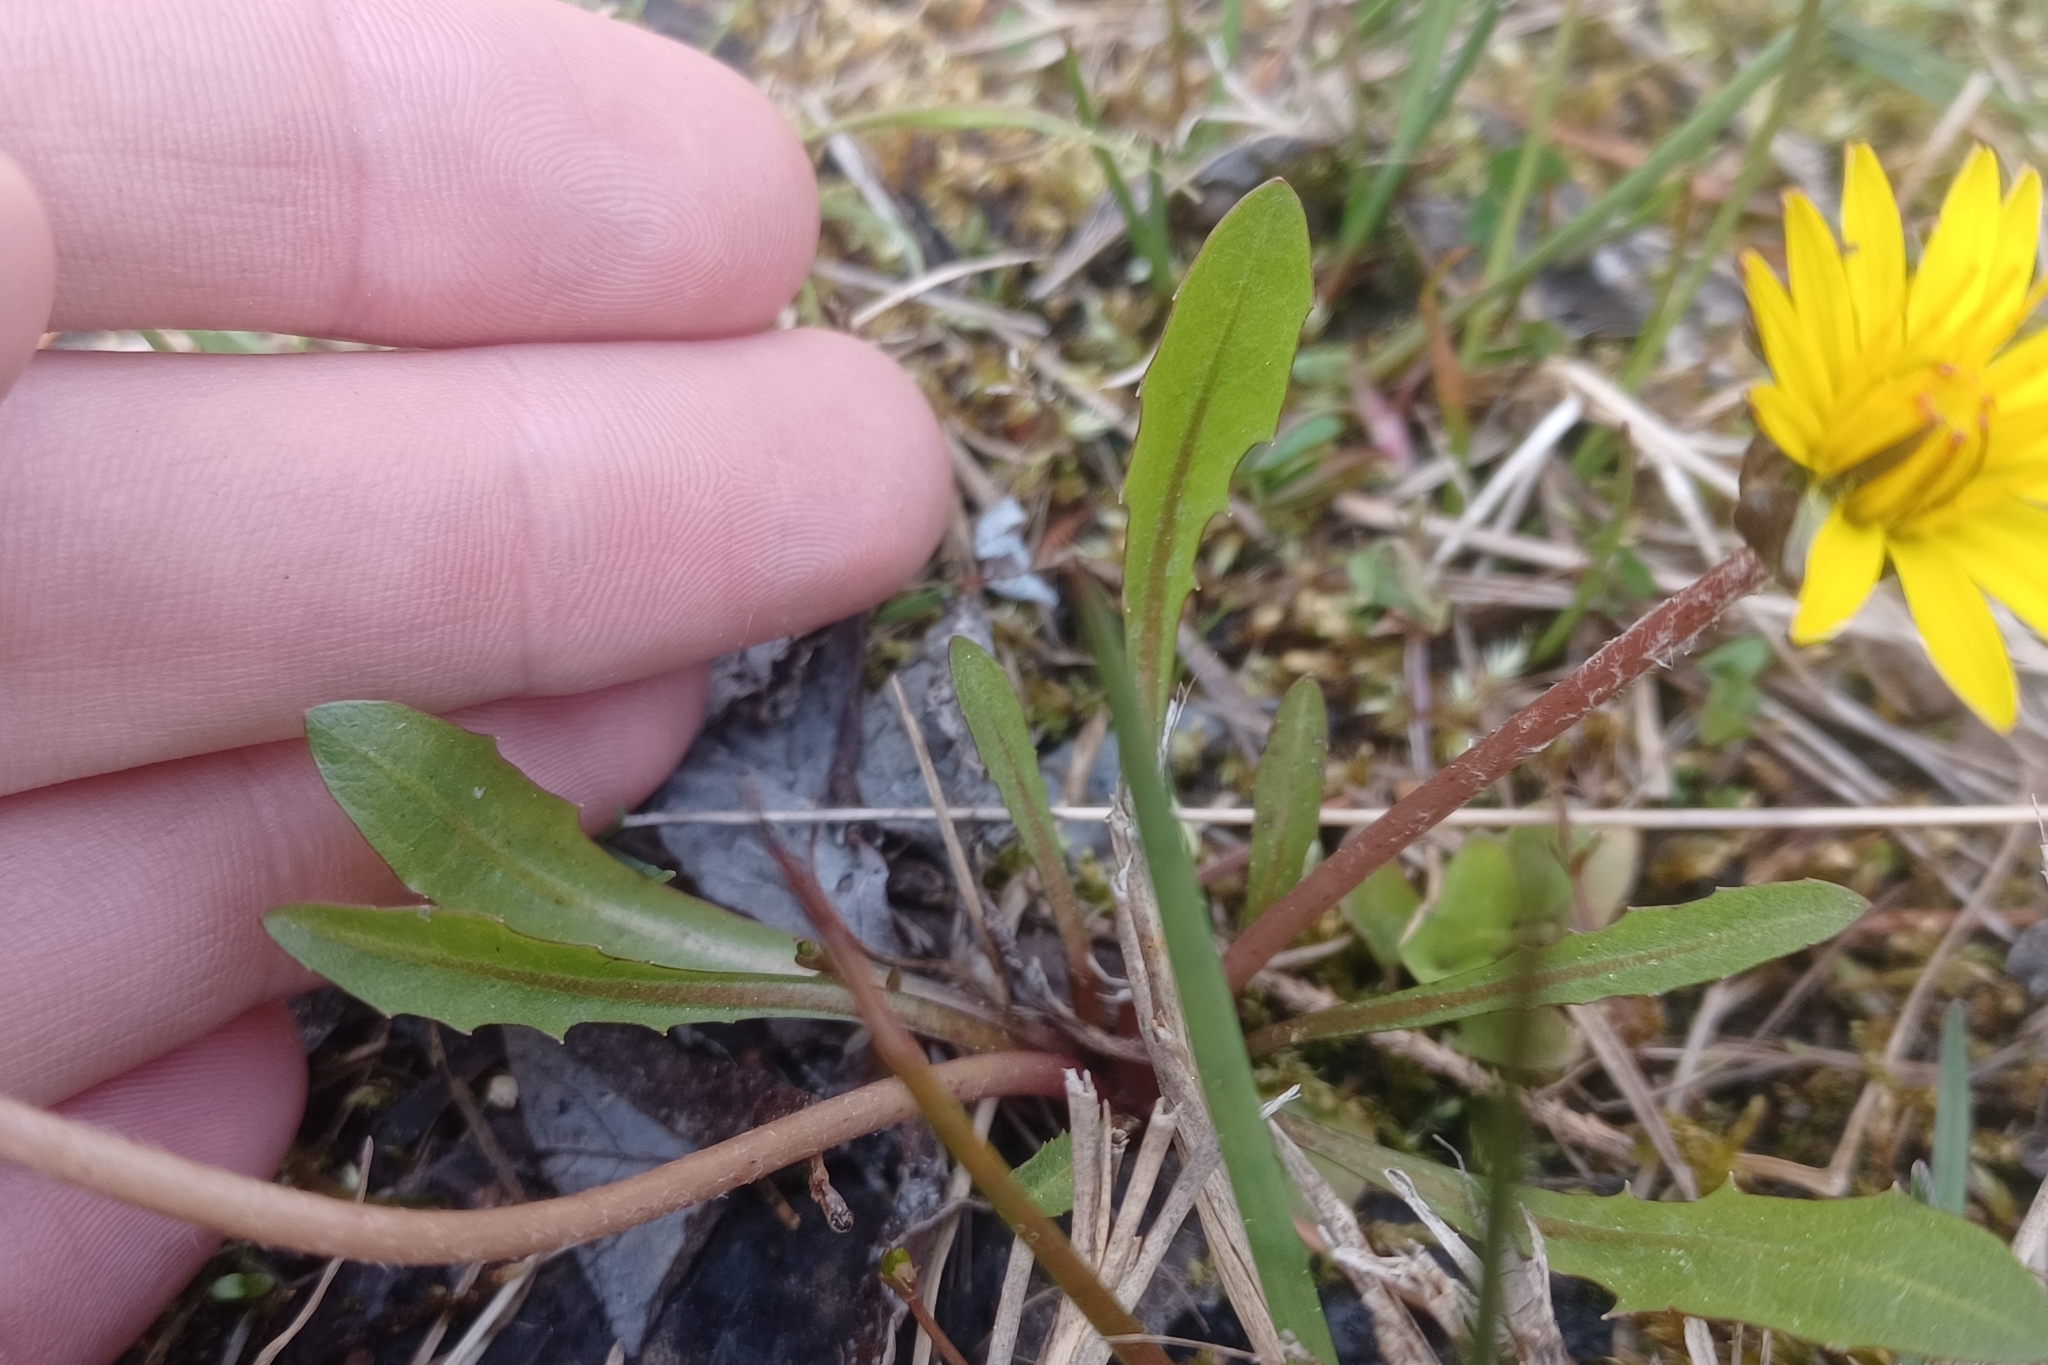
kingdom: Plantae
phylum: Tracheophyta
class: Magnoliopsida
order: Asterales
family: Asteraceae
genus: Taraxacum
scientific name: Taraxacum palustre
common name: Marsh dandelion
